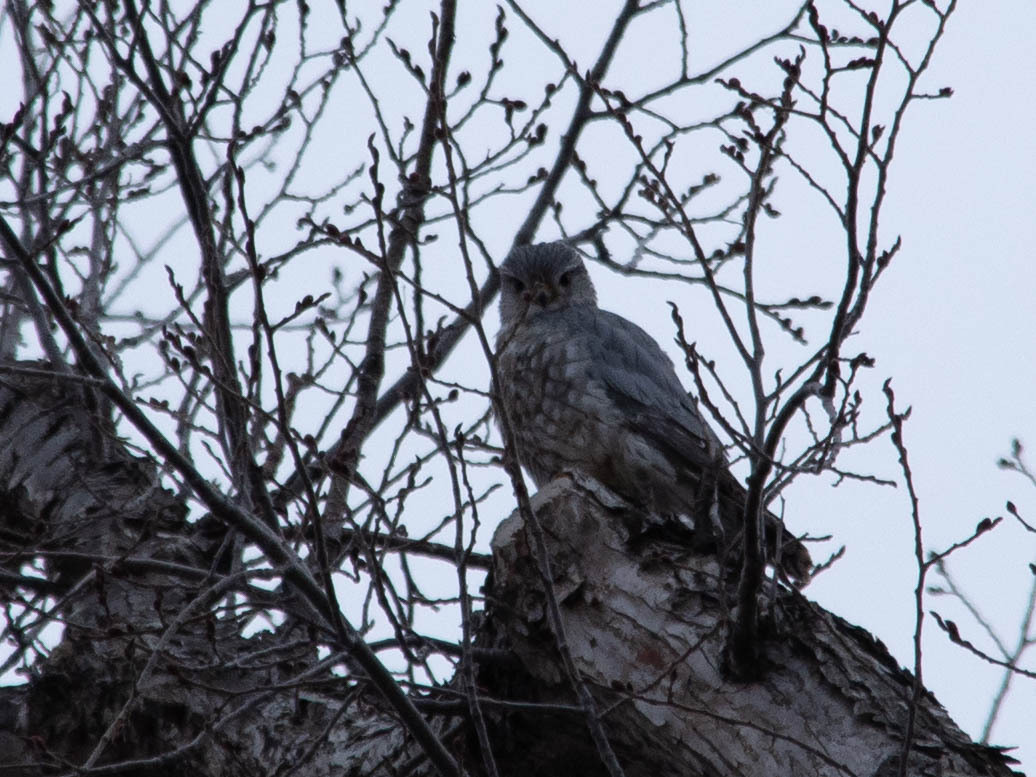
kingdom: Animalia
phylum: Chordata
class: Aves
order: Falconiformes
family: Falconidae
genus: Falco
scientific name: Falco columbarius
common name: Merlin
